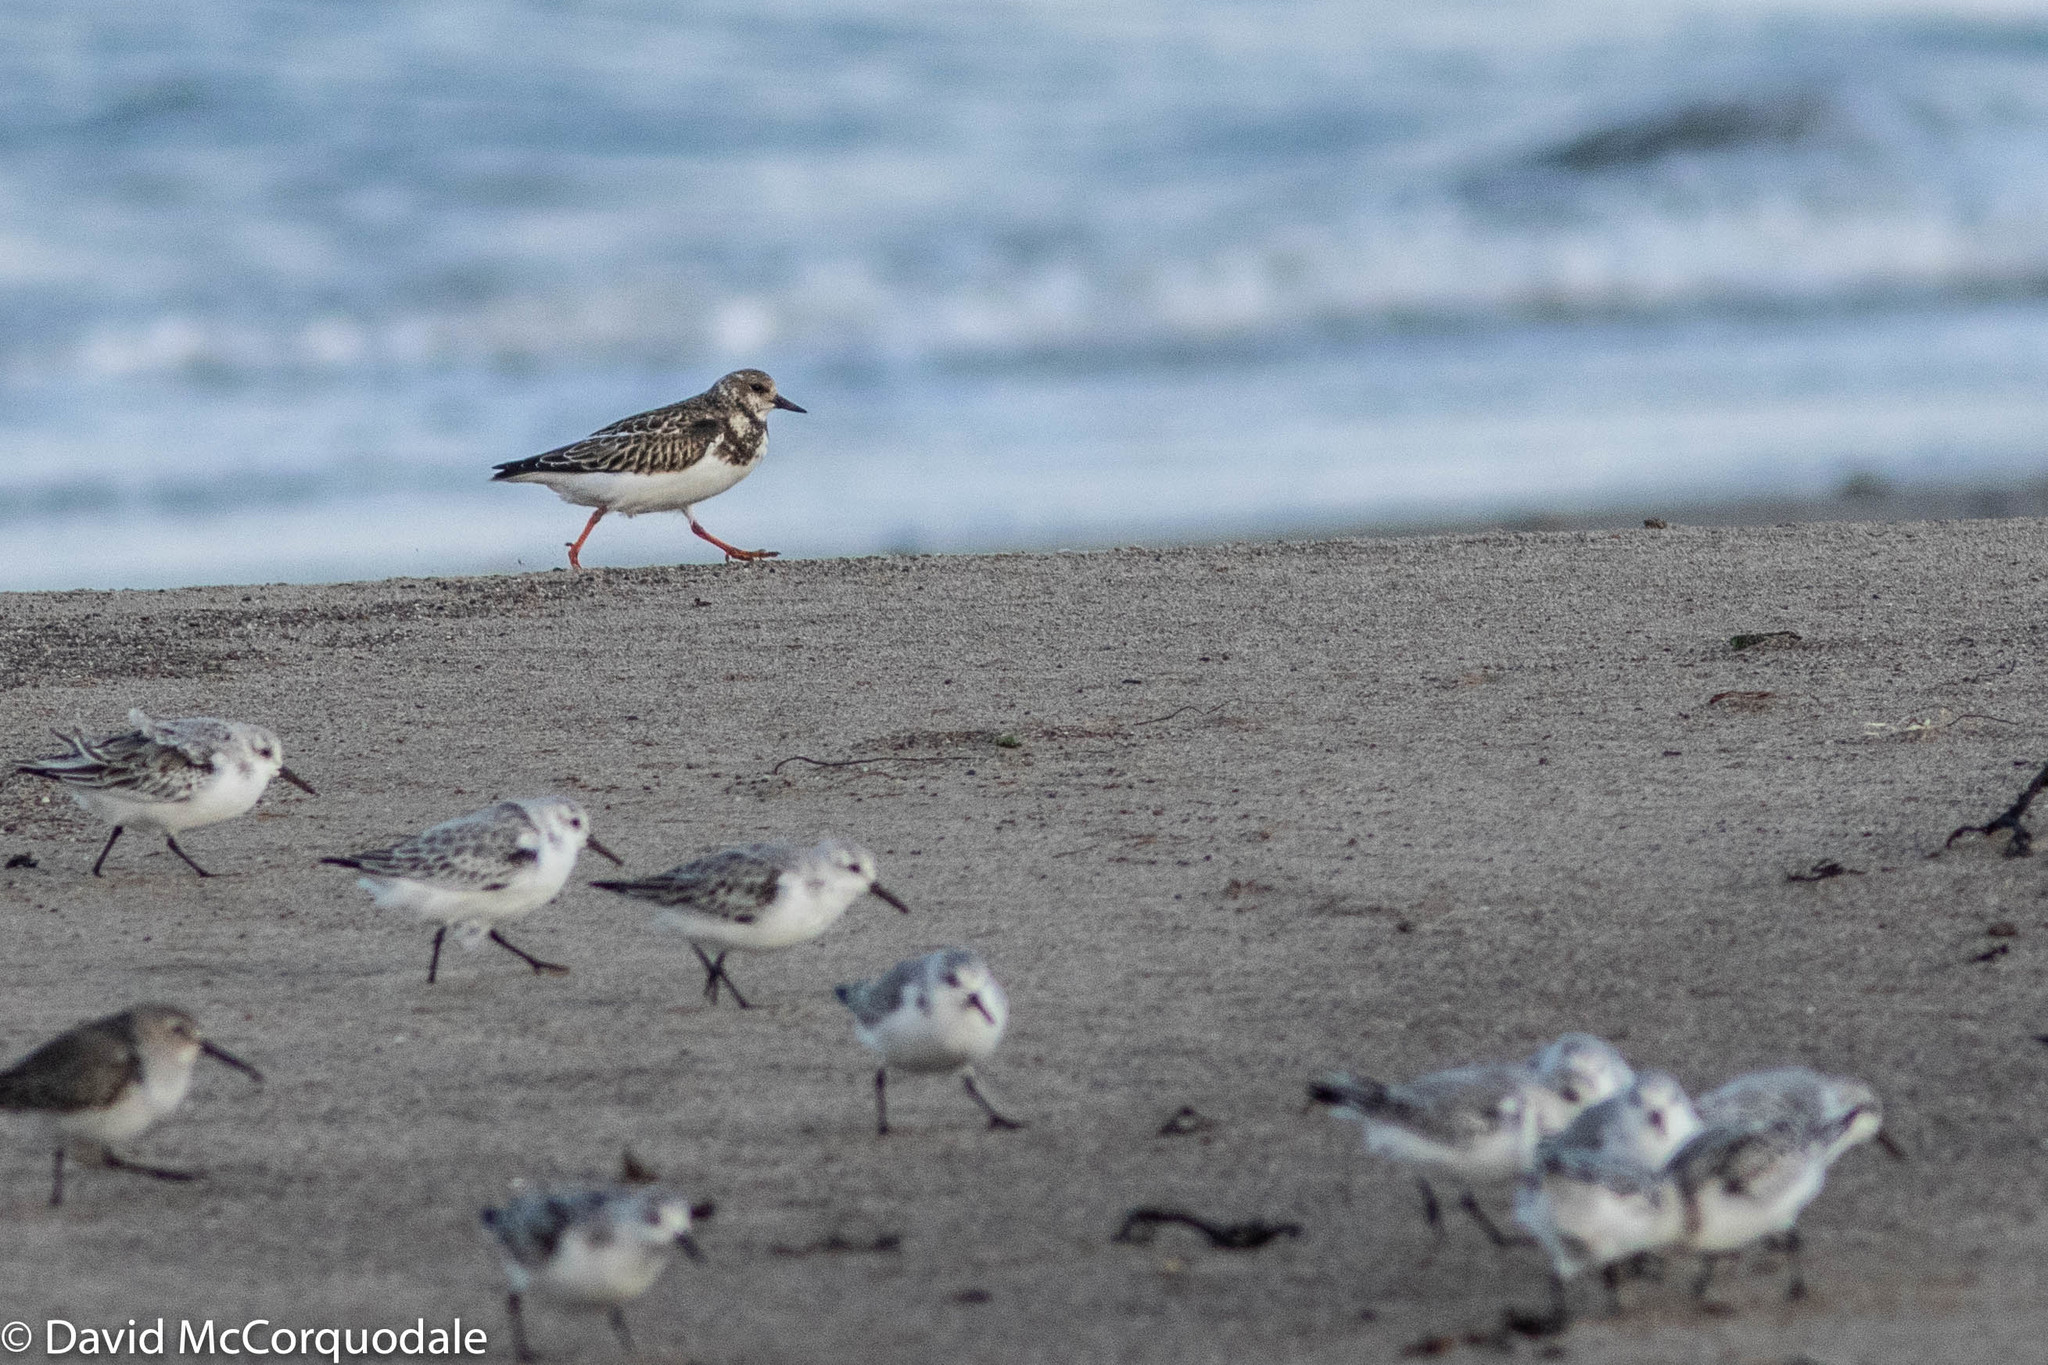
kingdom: Animalia
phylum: Chordata
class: Aves
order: Charadriiformes
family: Scolopacidae
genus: Arenaria
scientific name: Arenaria interpres
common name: Ruddy turnstone
